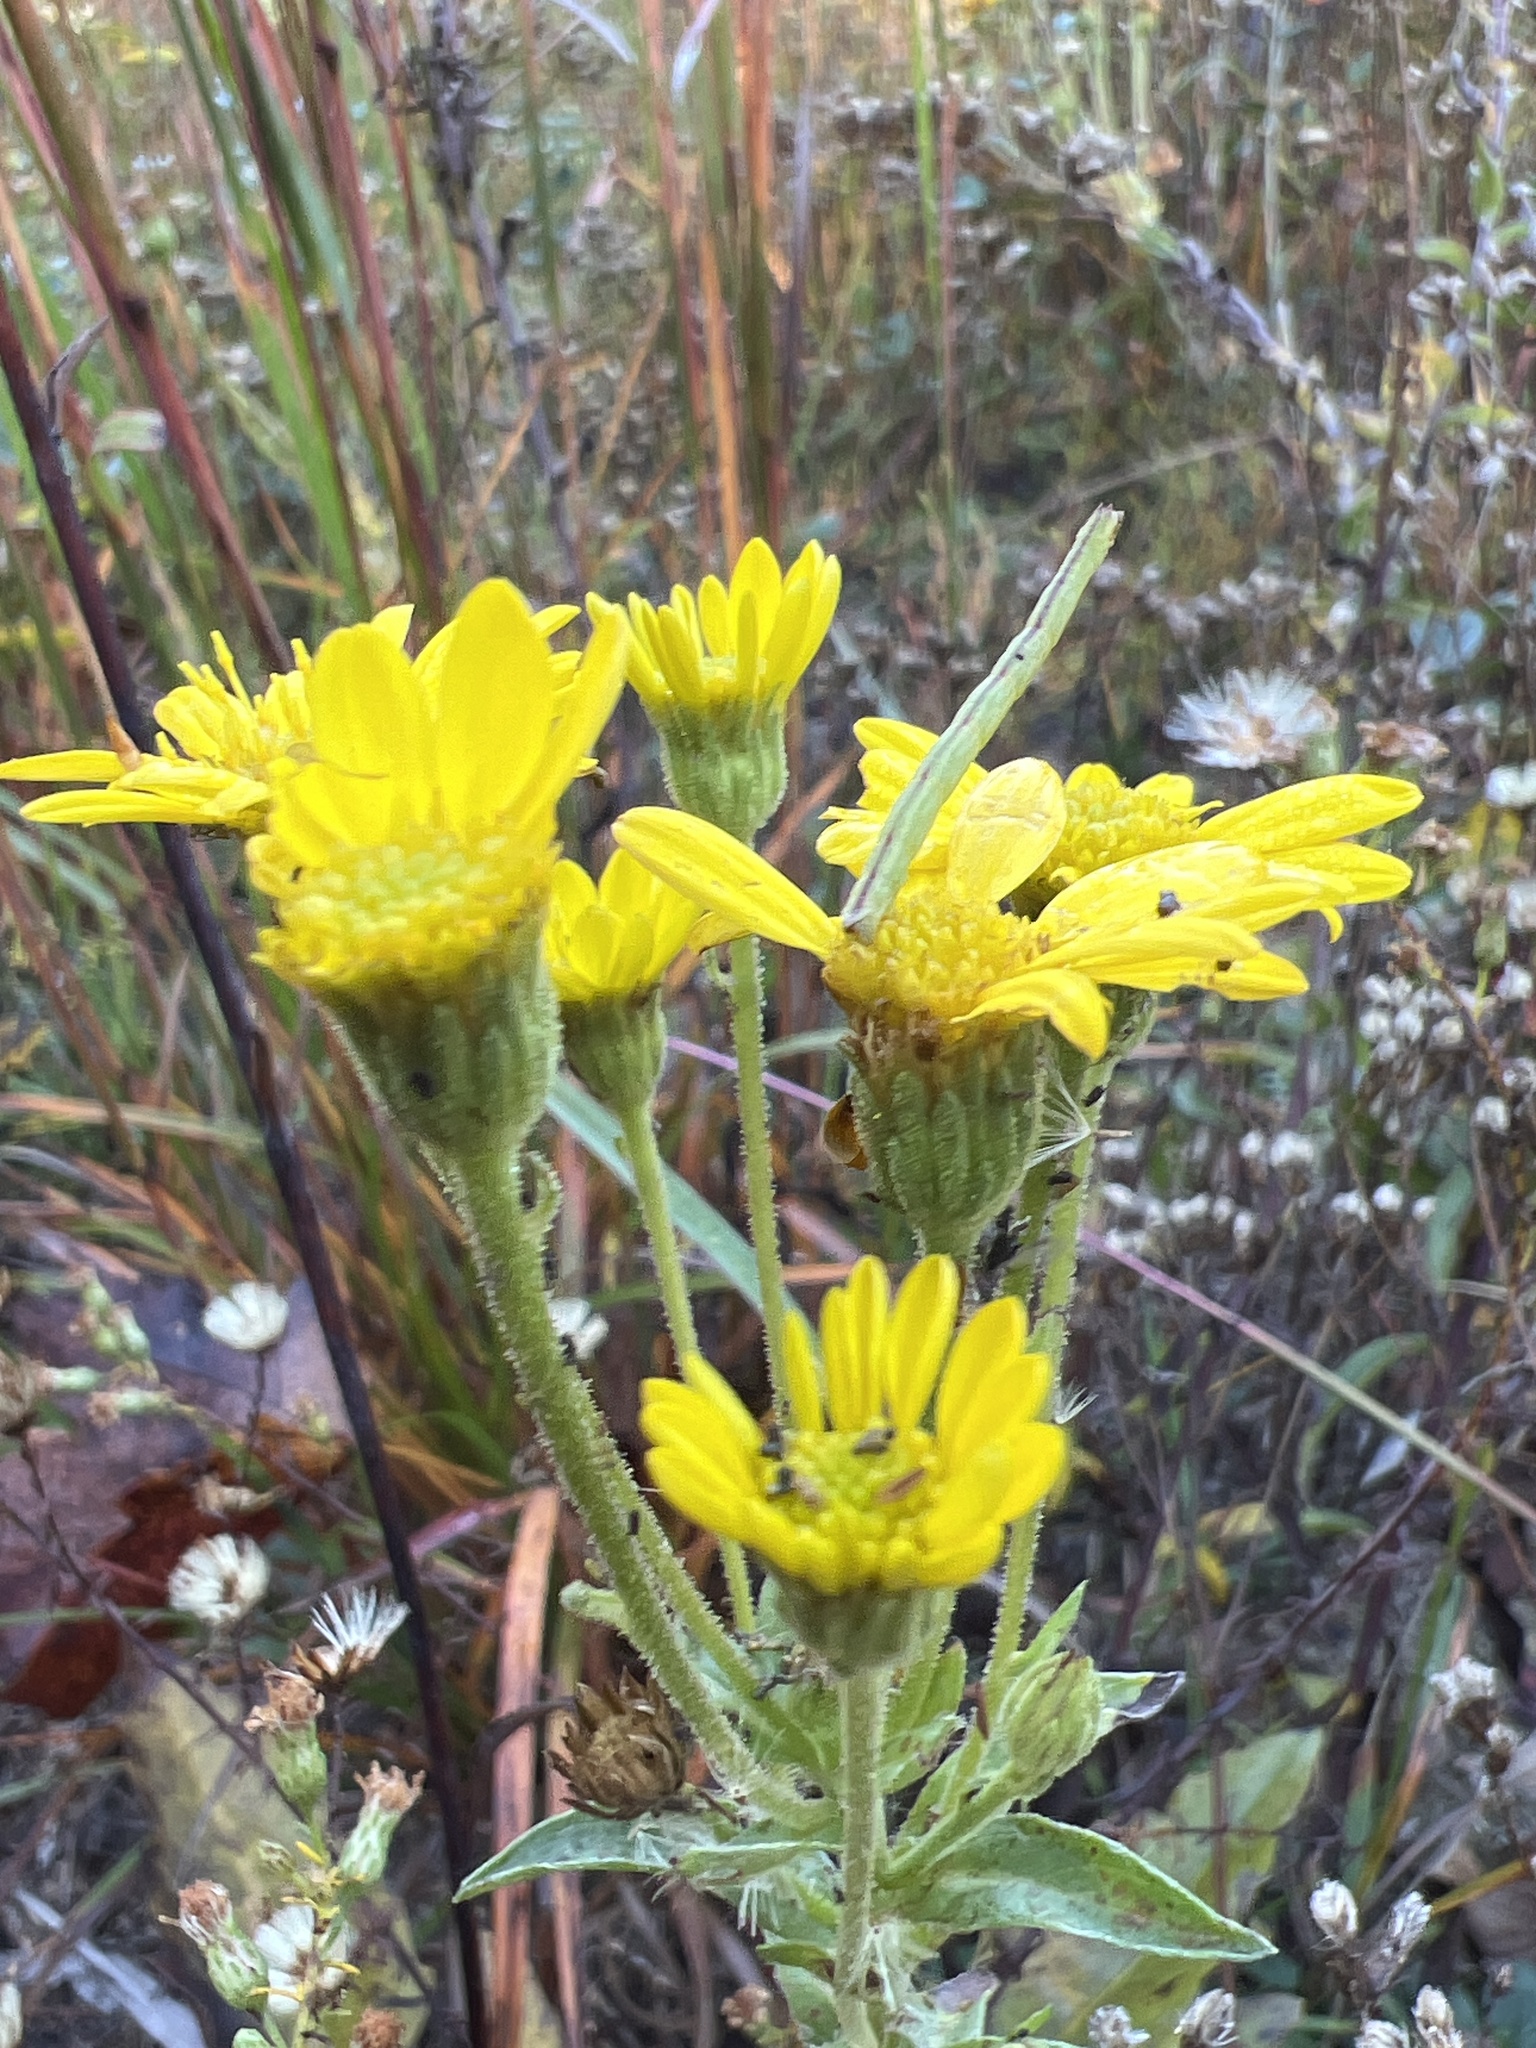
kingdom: Plantae
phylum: Tracheophyta
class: Magnoliopsida
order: Asterales
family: Asteraceae
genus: Chrysopsis
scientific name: Chrysopsis mariana
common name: Maryland golden-aster
